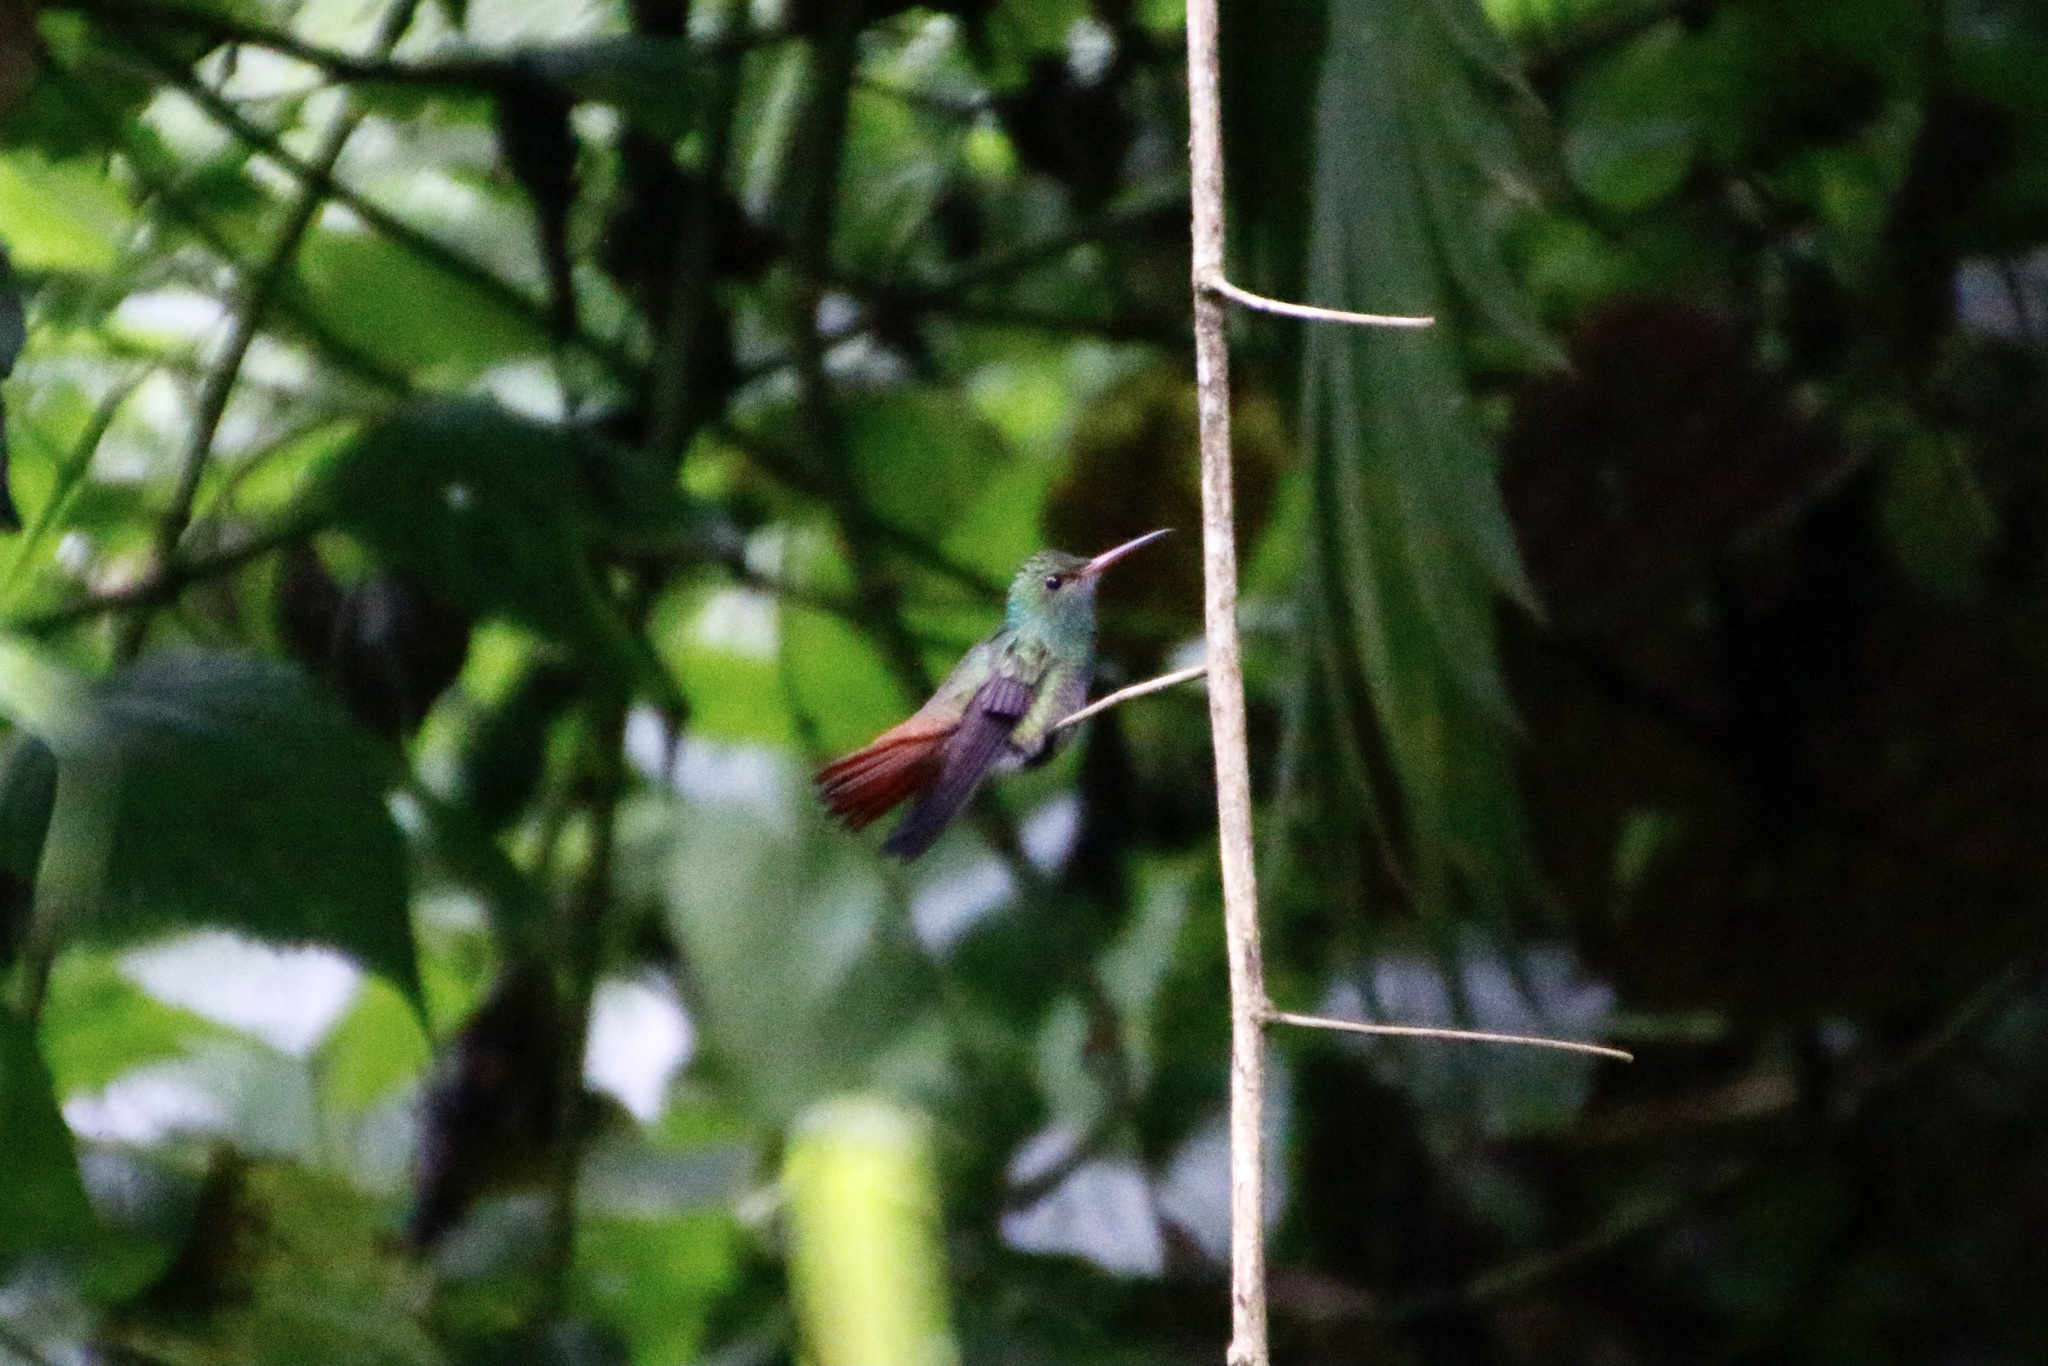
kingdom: Animalia
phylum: Chordata
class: Aves
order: Apodiformes
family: Trochilidae
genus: Amazilia
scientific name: Amazilia tzacatl
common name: Rufous-tailed hummingbird
